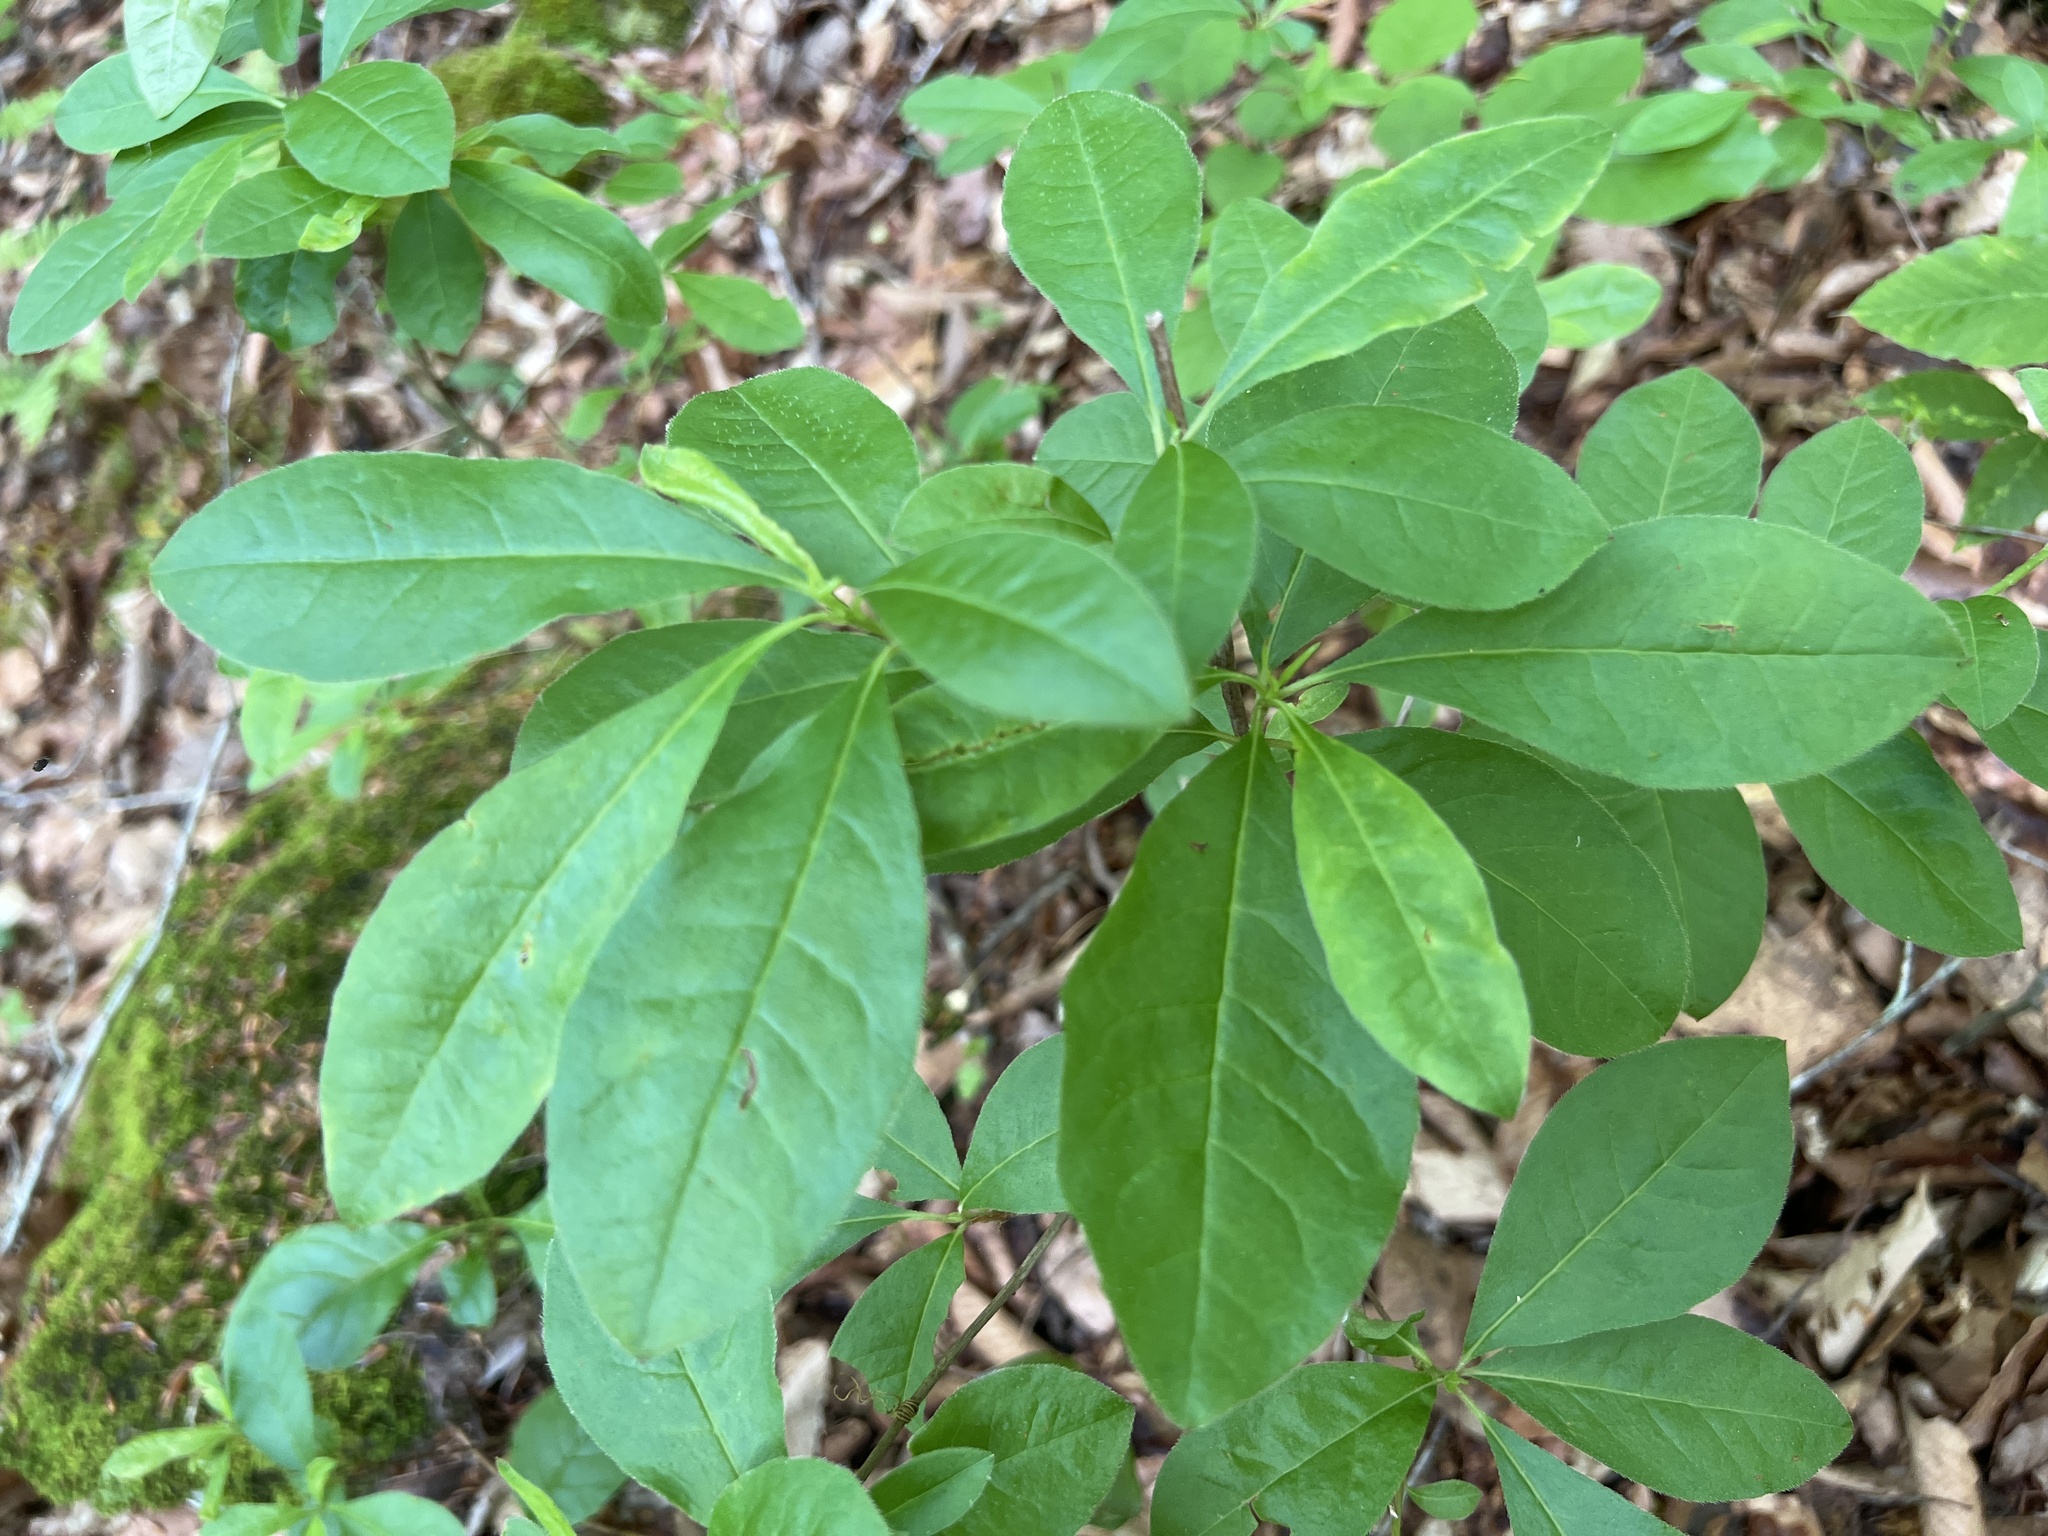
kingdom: Plantae
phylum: Tracheophyta
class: Magnoliopsida
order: Ericales
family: Ericaceae
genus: Rhododendron
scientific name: Rhododendron periclymenoides
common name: Election-pink
